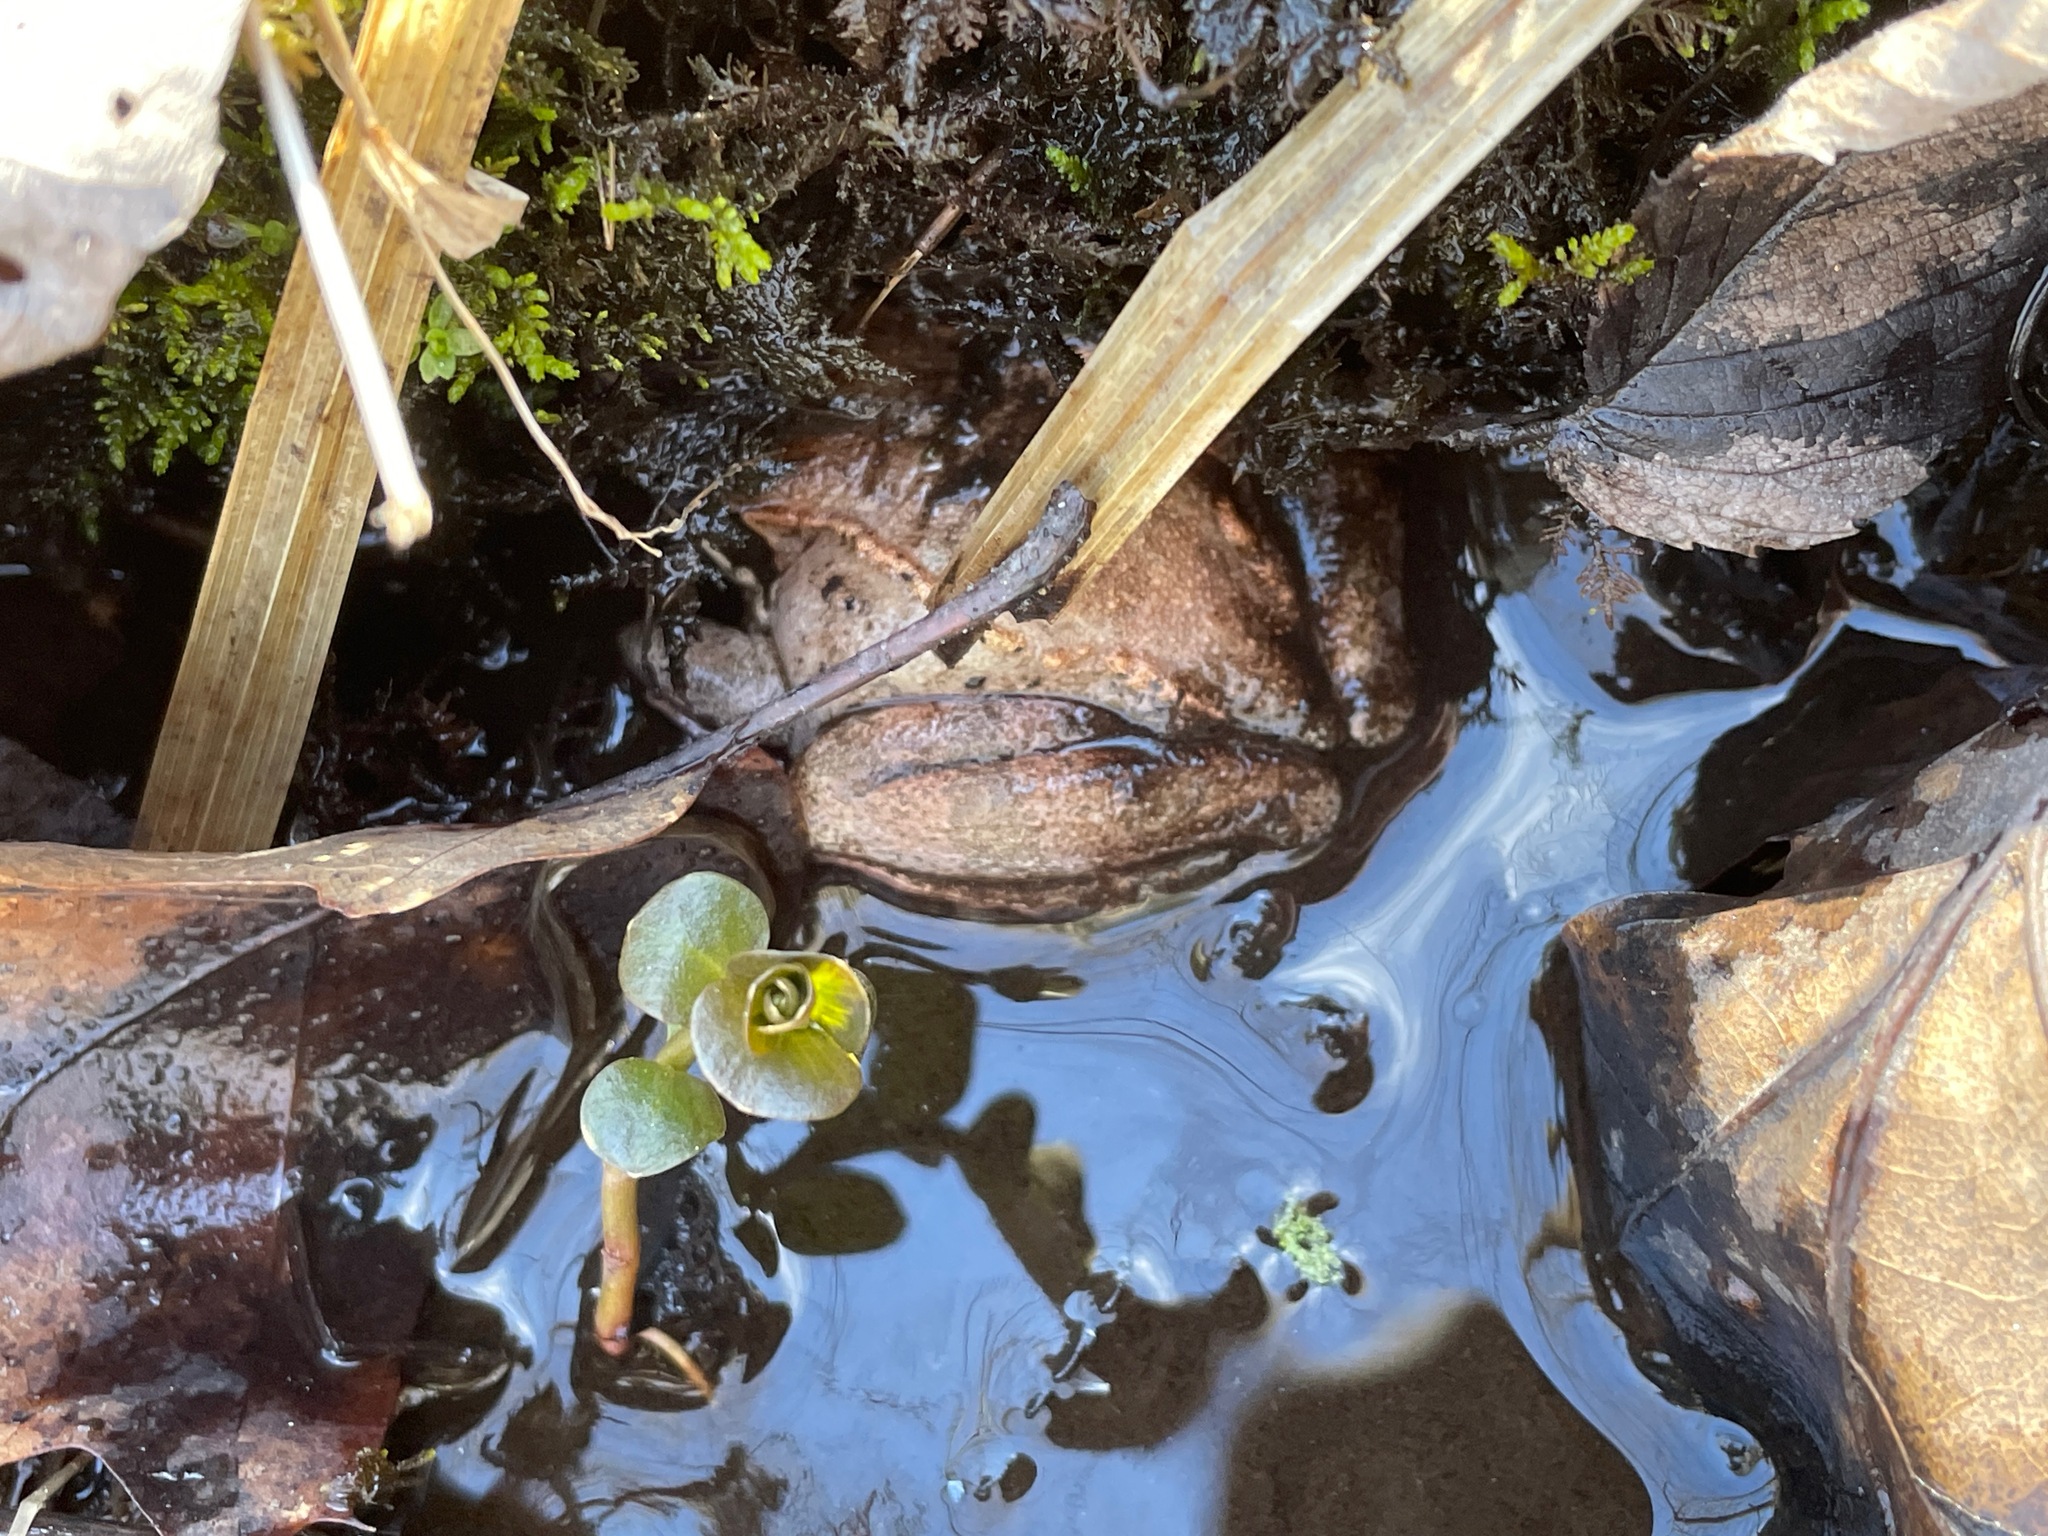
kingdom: Animalia
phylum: Chordata
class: Amphibia
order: Anura
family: Ranidae
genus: Lithobates
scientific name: Lithobates sylvaticus
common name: Wood frog
